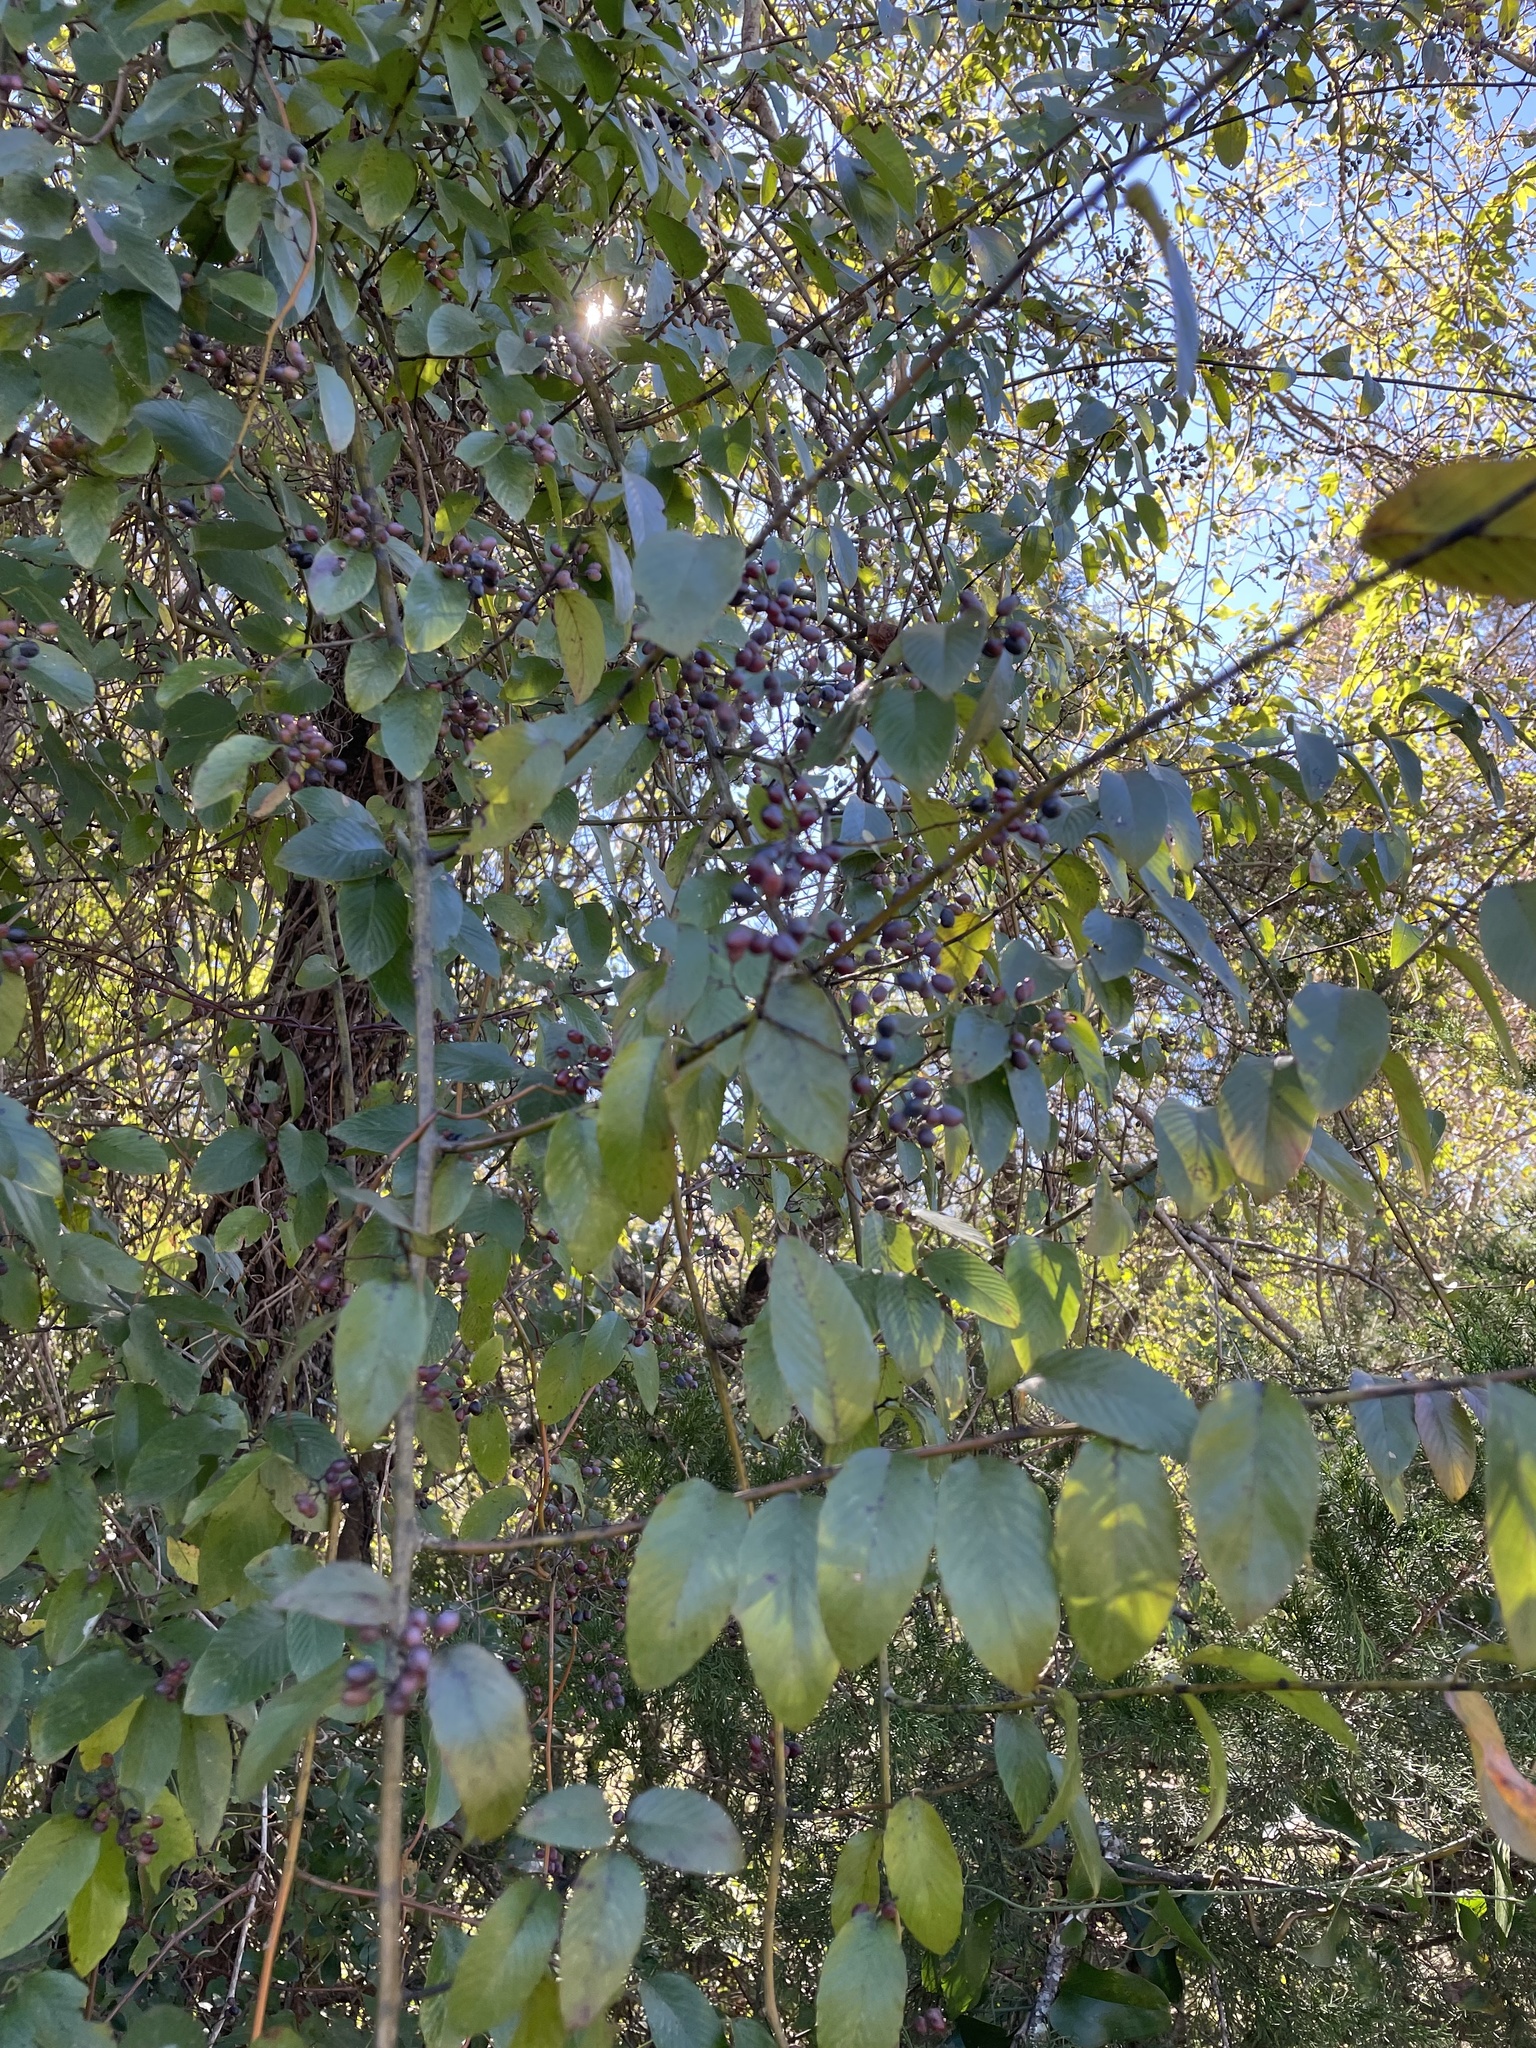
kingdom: Plantae
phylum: Tracheophyta
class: Magnoliopsida
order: Rosales
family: Rhamnaceae
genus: Berchemia
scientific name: Berchemia scandens
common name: Supplejack
